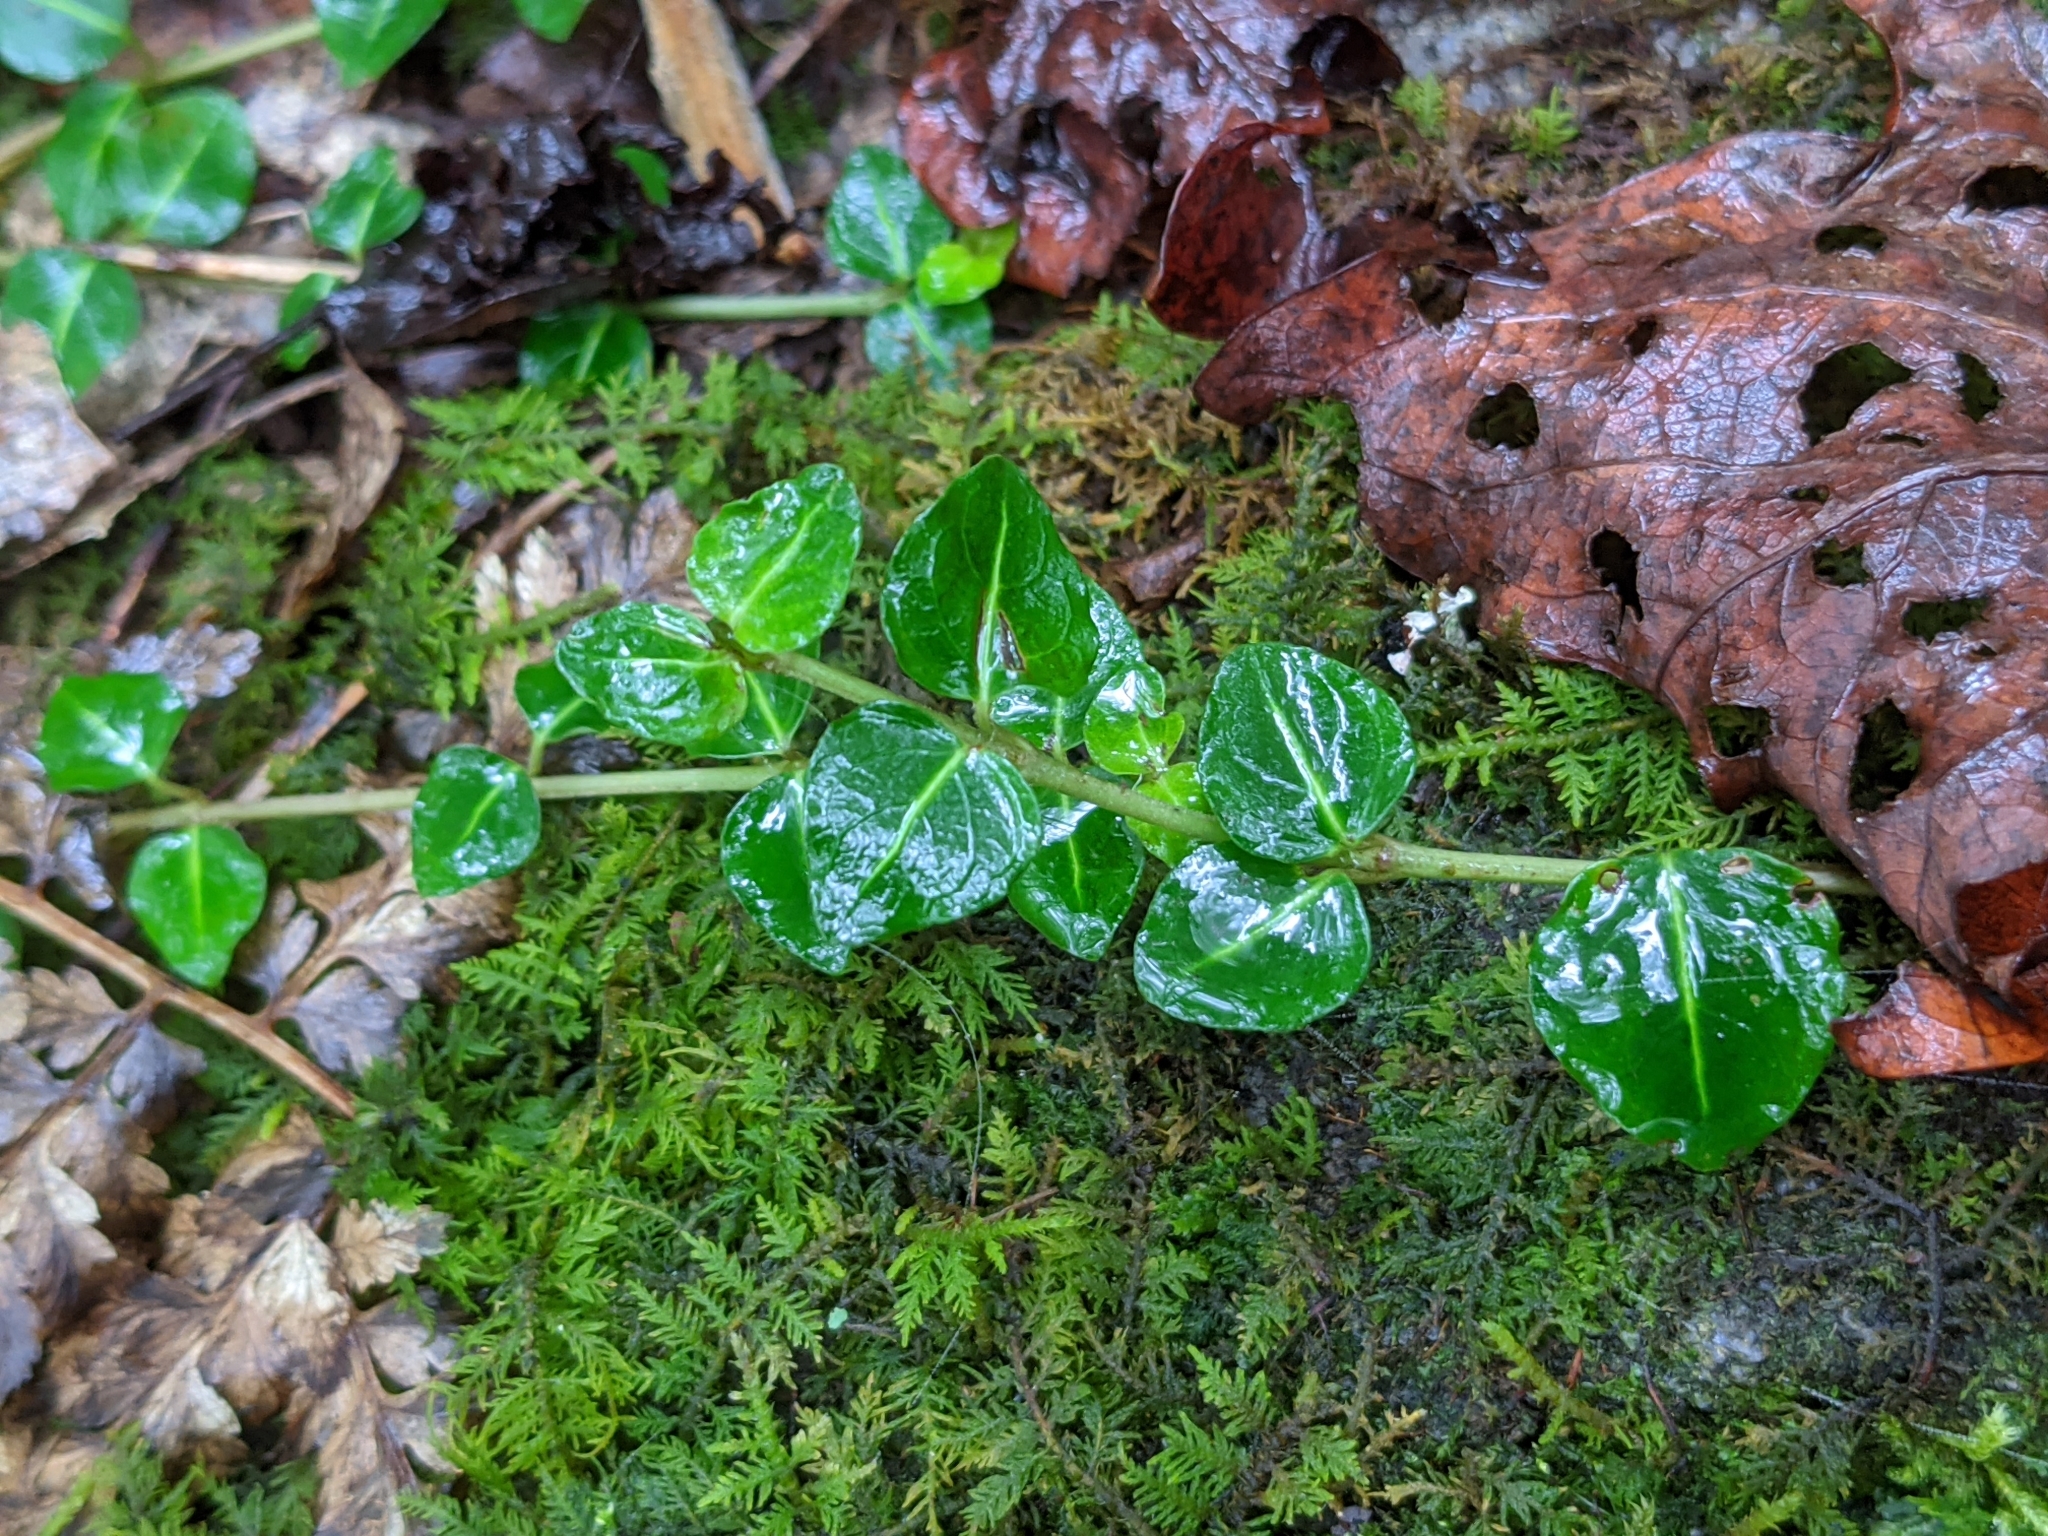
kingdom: Plantae
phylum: Tracheophyta
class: Magnoliopsida
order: Gentianales
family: Rubiaceae
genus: Mitchella
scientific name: Mitchella repens
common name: Partridge-berry
